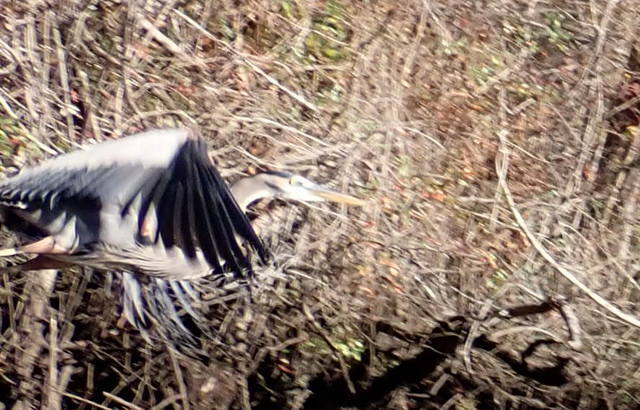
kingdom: Animalia
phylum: Chordata
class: Aves
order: Pelecaniformes
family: Ardeidae
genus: Ardea
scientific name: Ardea herodias
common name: Great blue heron
